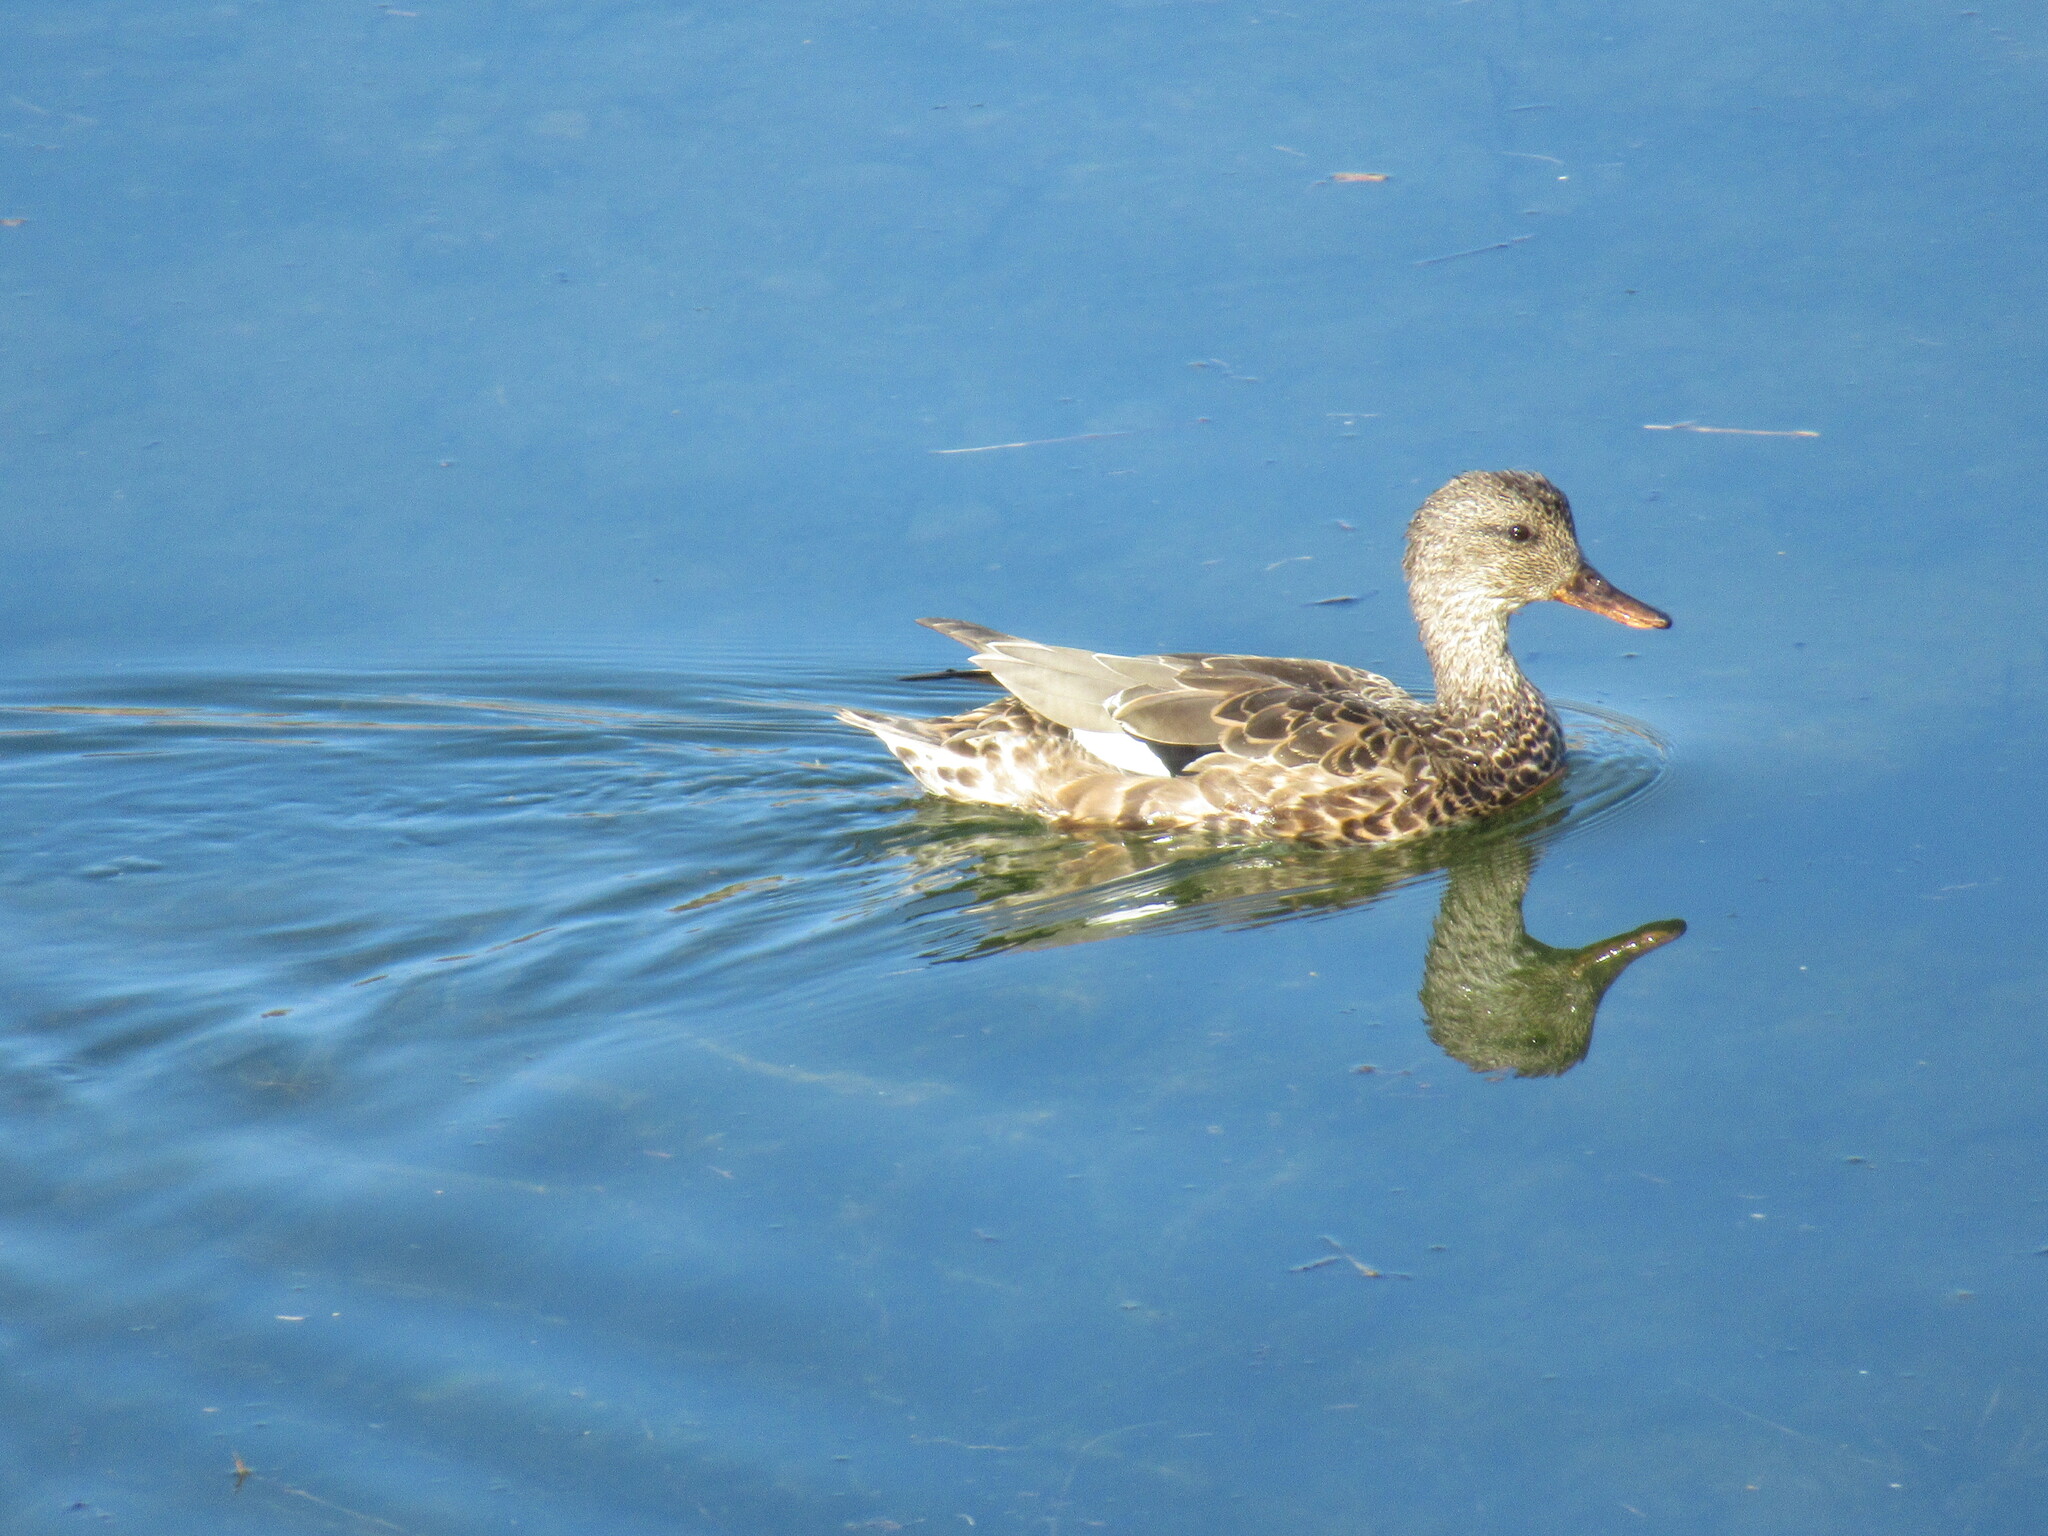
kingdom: Animalia
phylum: Chordata
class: Aves
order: Anseriformes
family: Anatidae
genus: Mareca
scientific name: Mareca strepera
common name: Gadwall
